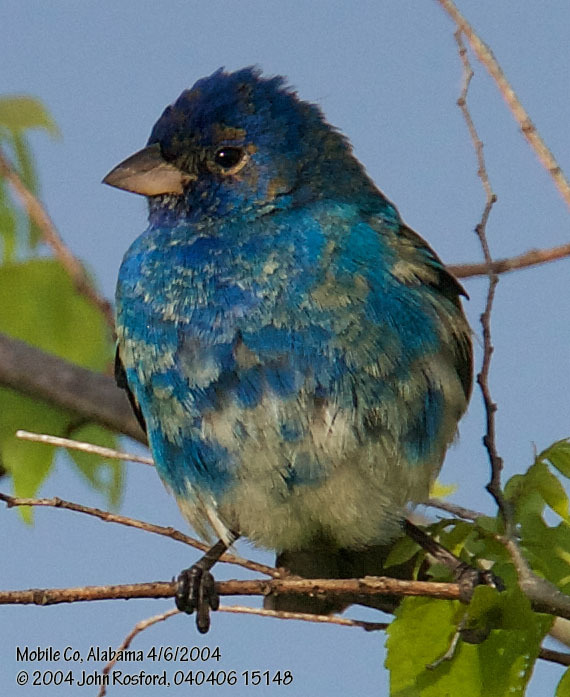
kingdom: Animalia
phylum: Chordata
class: Aves
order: Passeriformes
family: Cardinalidae
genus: Passerina
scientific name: Passerina cyanea
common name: Indigo bunting
